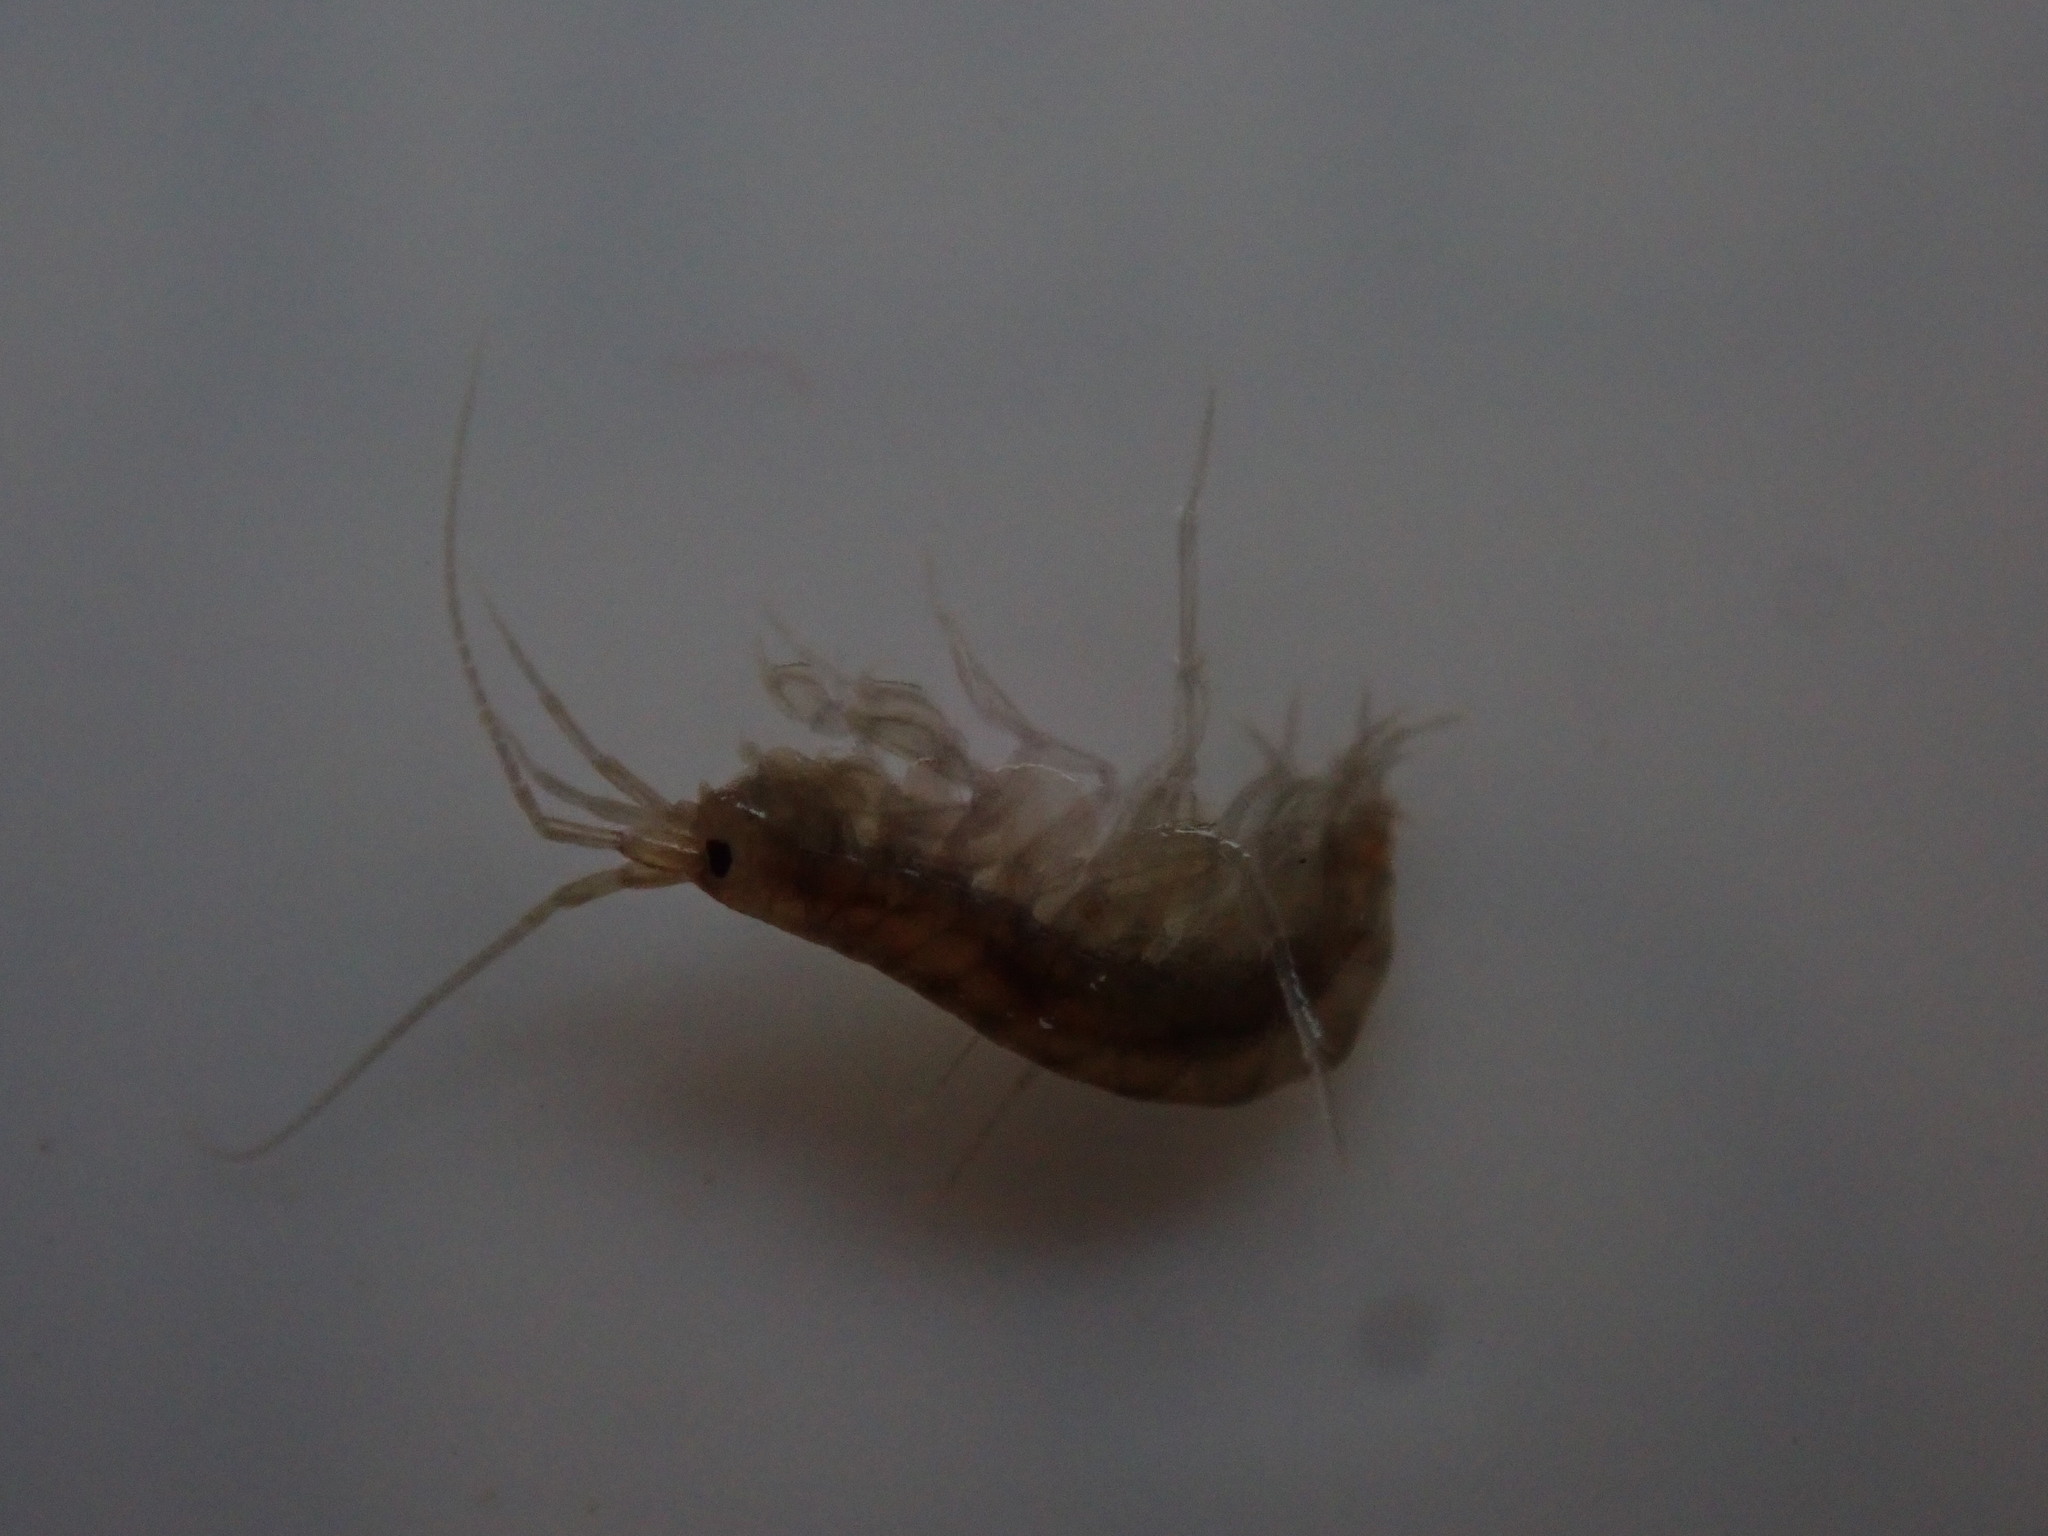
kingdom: Animalia
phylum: Arthropoda
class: Malacostraca
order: Amphipoda
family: Crangonyctidae
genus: Sicifera
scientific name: Sicifera chamberlaini
